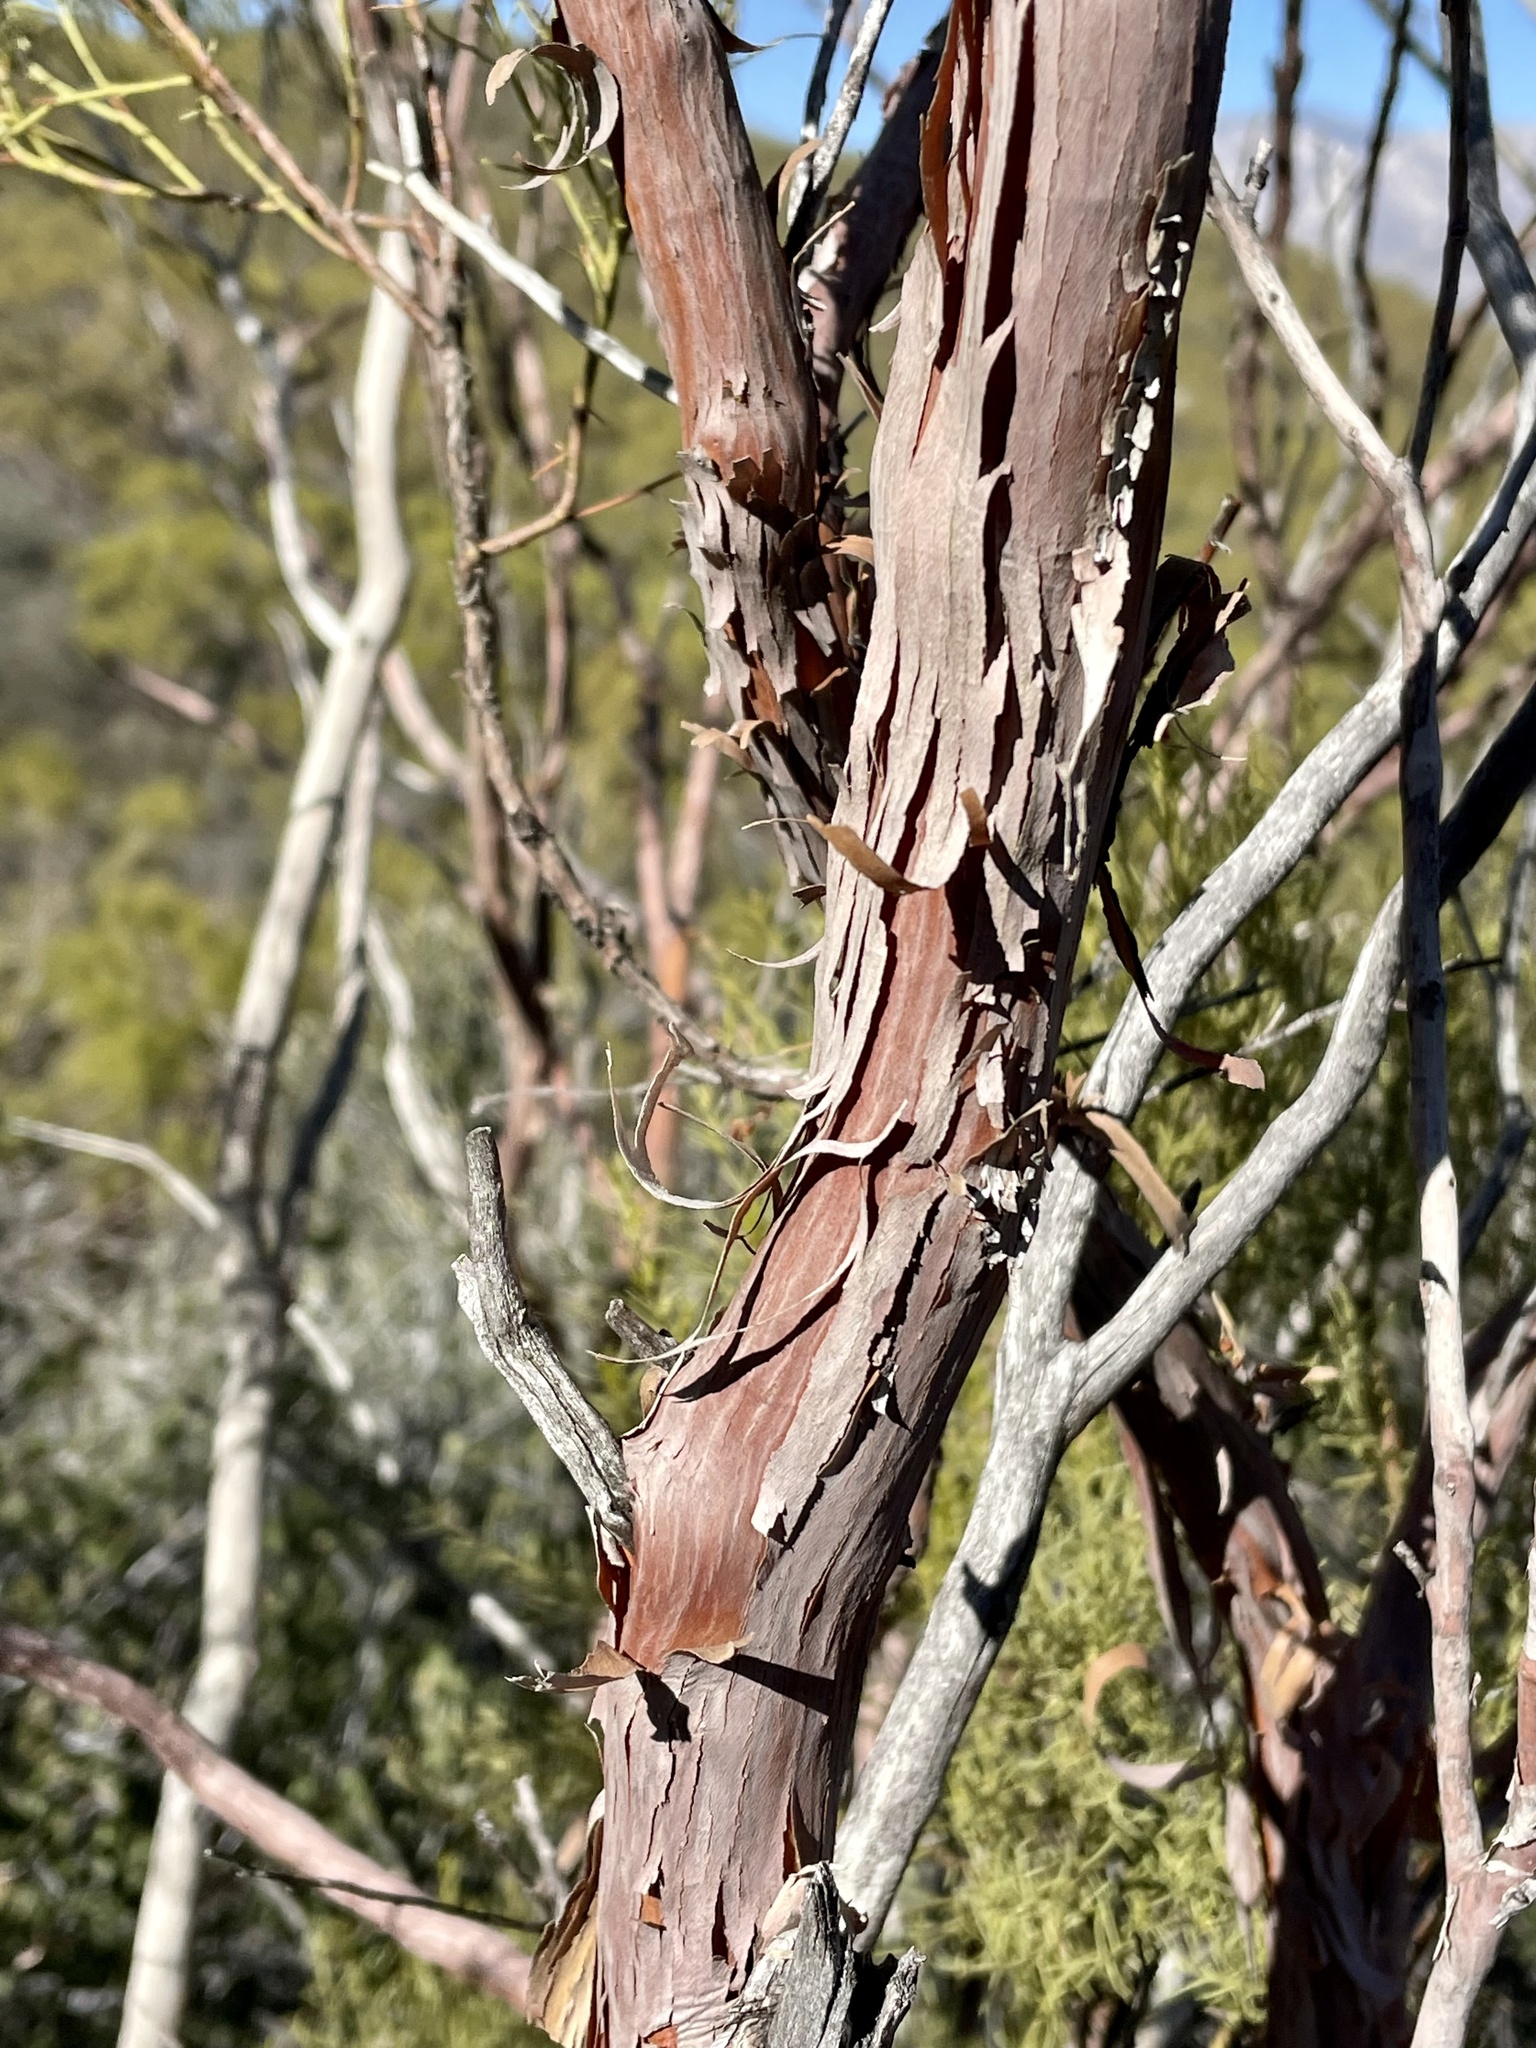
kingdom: Plantae
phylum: Tracheophyta
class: Magnoliopsida
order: Rosales
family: Rosaceae
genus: Adenostoma
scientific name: Adenostoma sparsifolium
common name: Red shank
